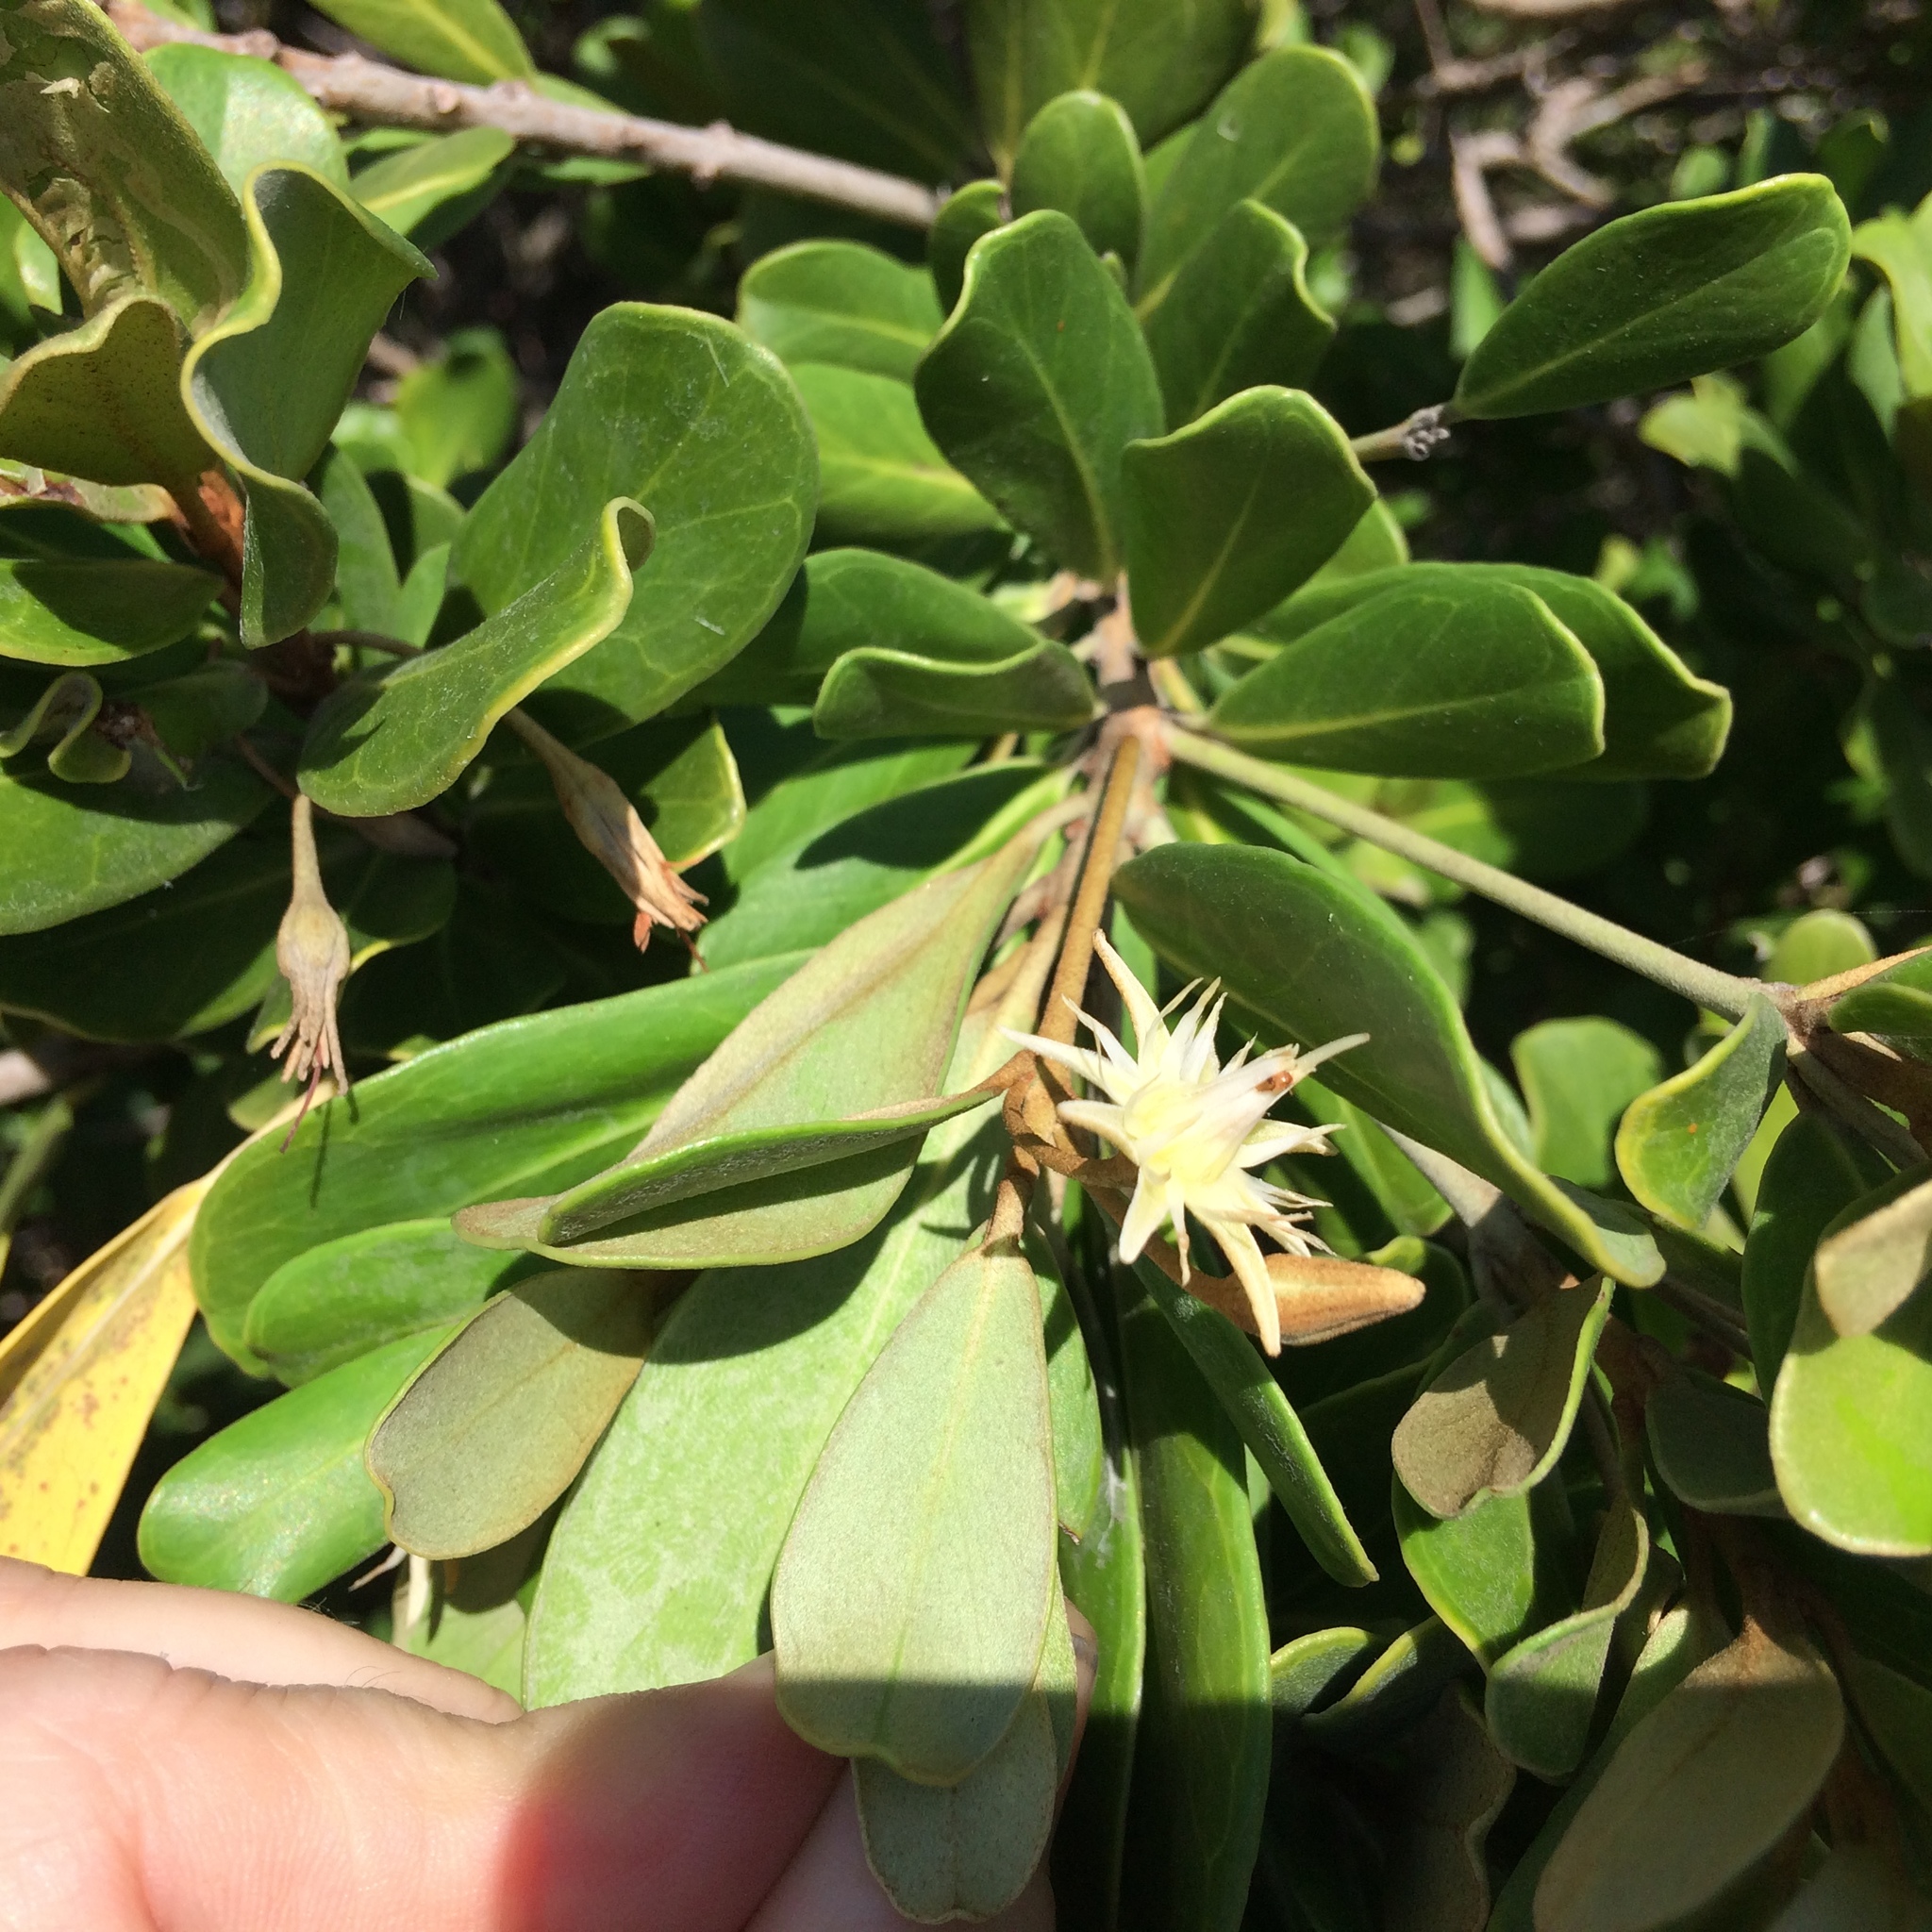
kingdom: Plantae
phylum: Tracheophyta
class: Magnoliopsida
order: Ericales
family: Sapotaceae
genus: Mimusops
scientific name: Mimusops caffra
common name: Coastal red milkwood
